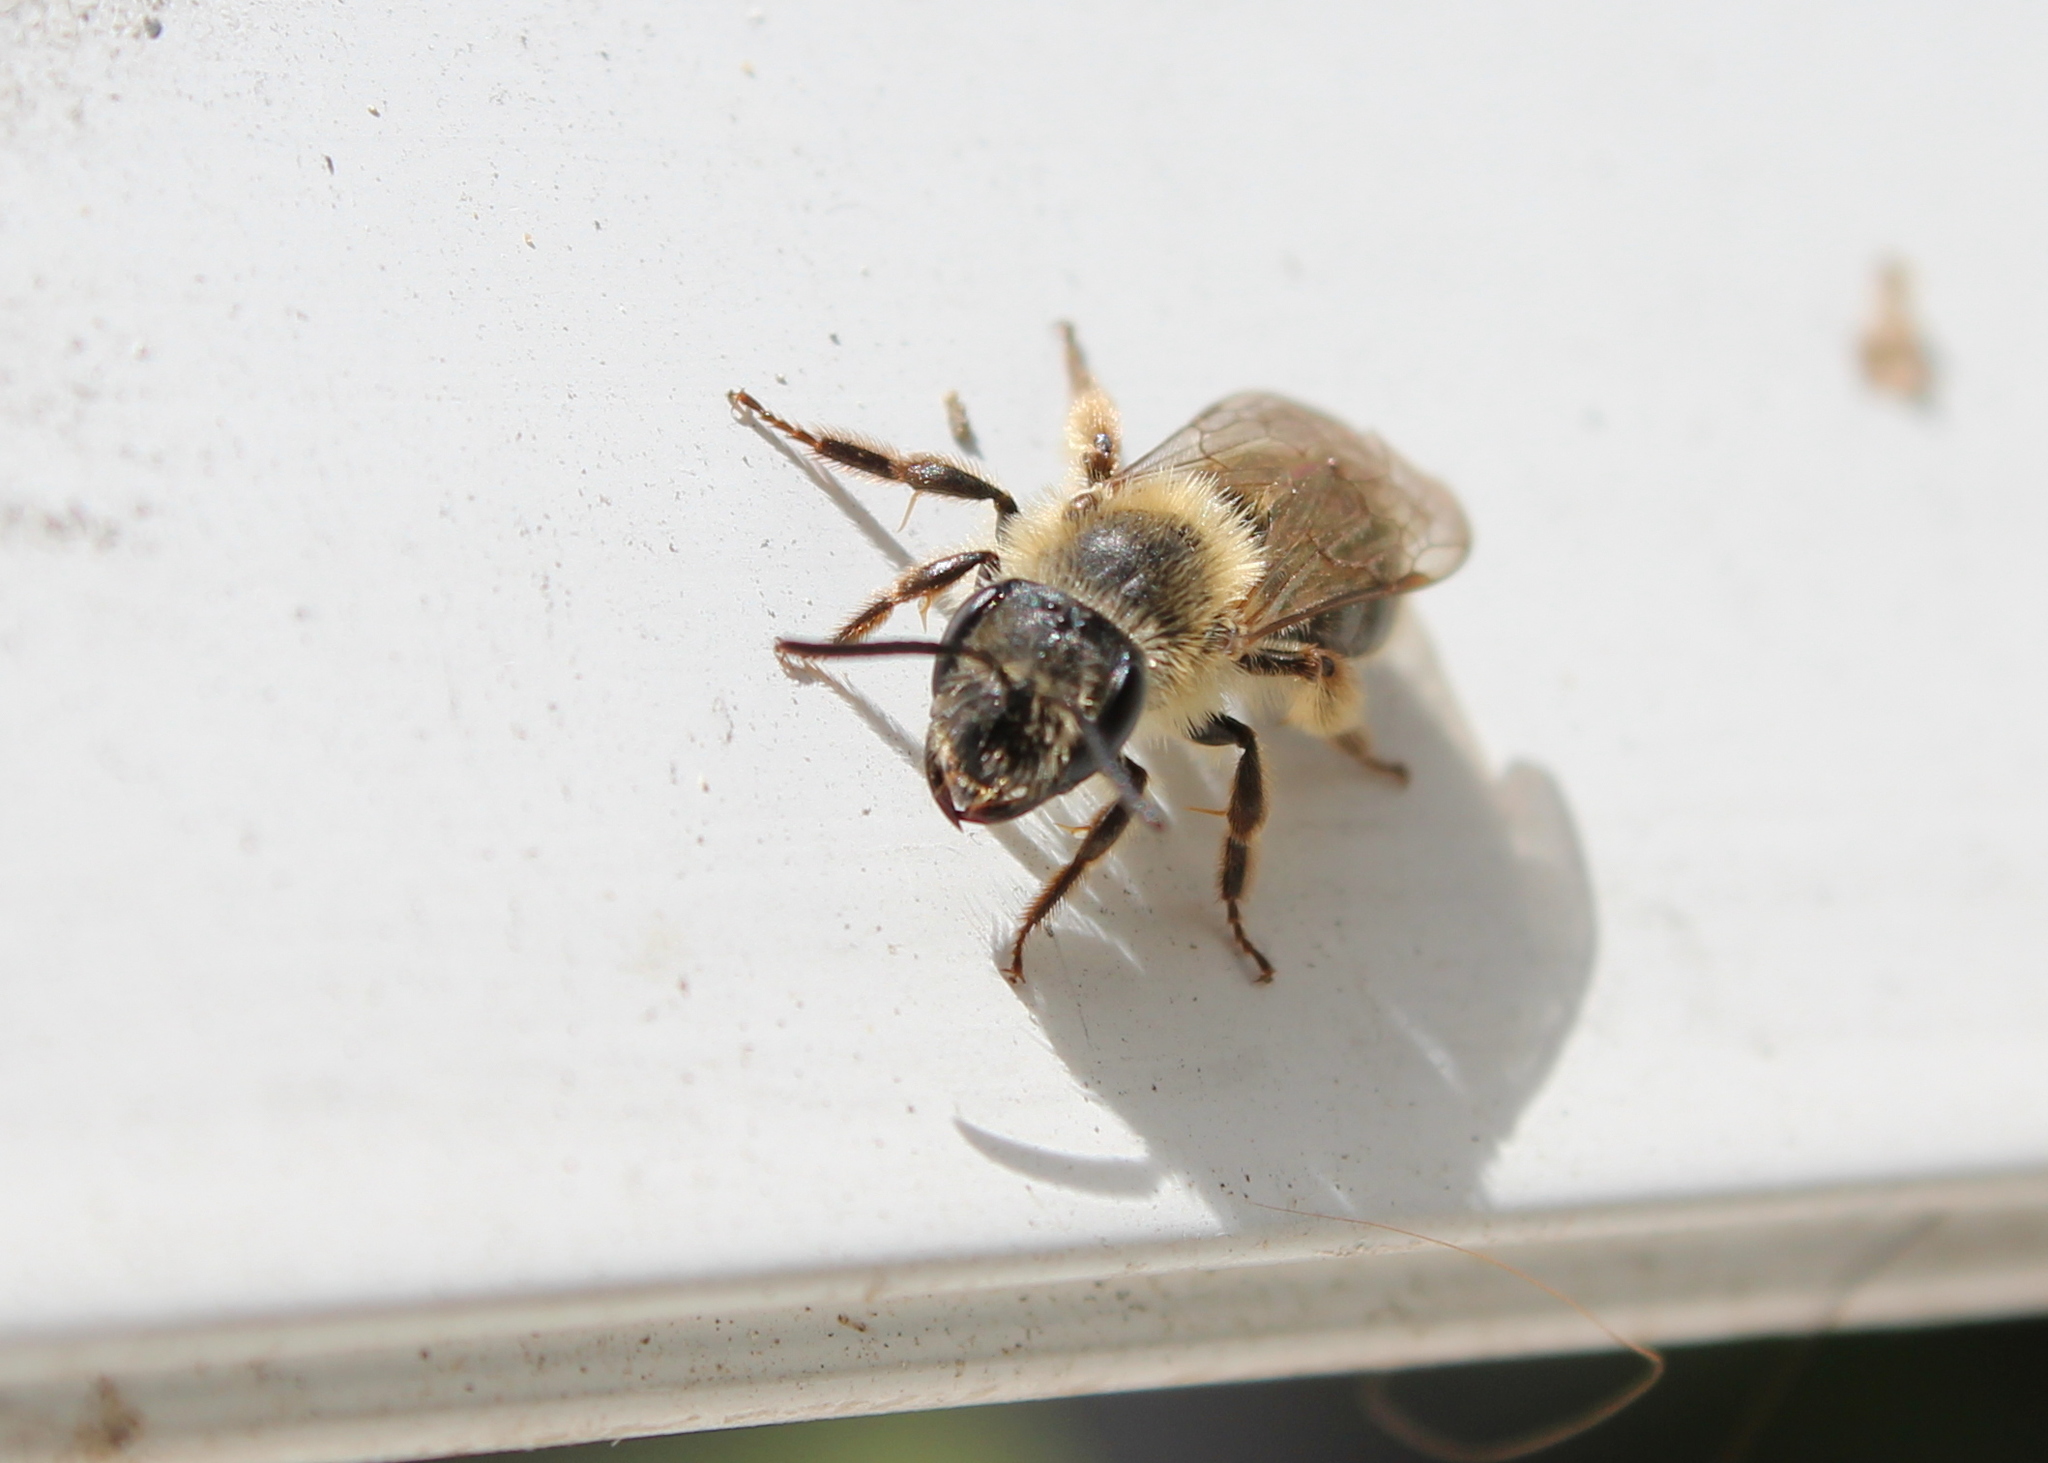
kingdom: Animalia
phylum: Arthropoda
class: Insecta
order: Hymenoptera
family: Andrenidae
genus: Andrena
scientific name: Andrena carolina
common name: Carolina miner bee
